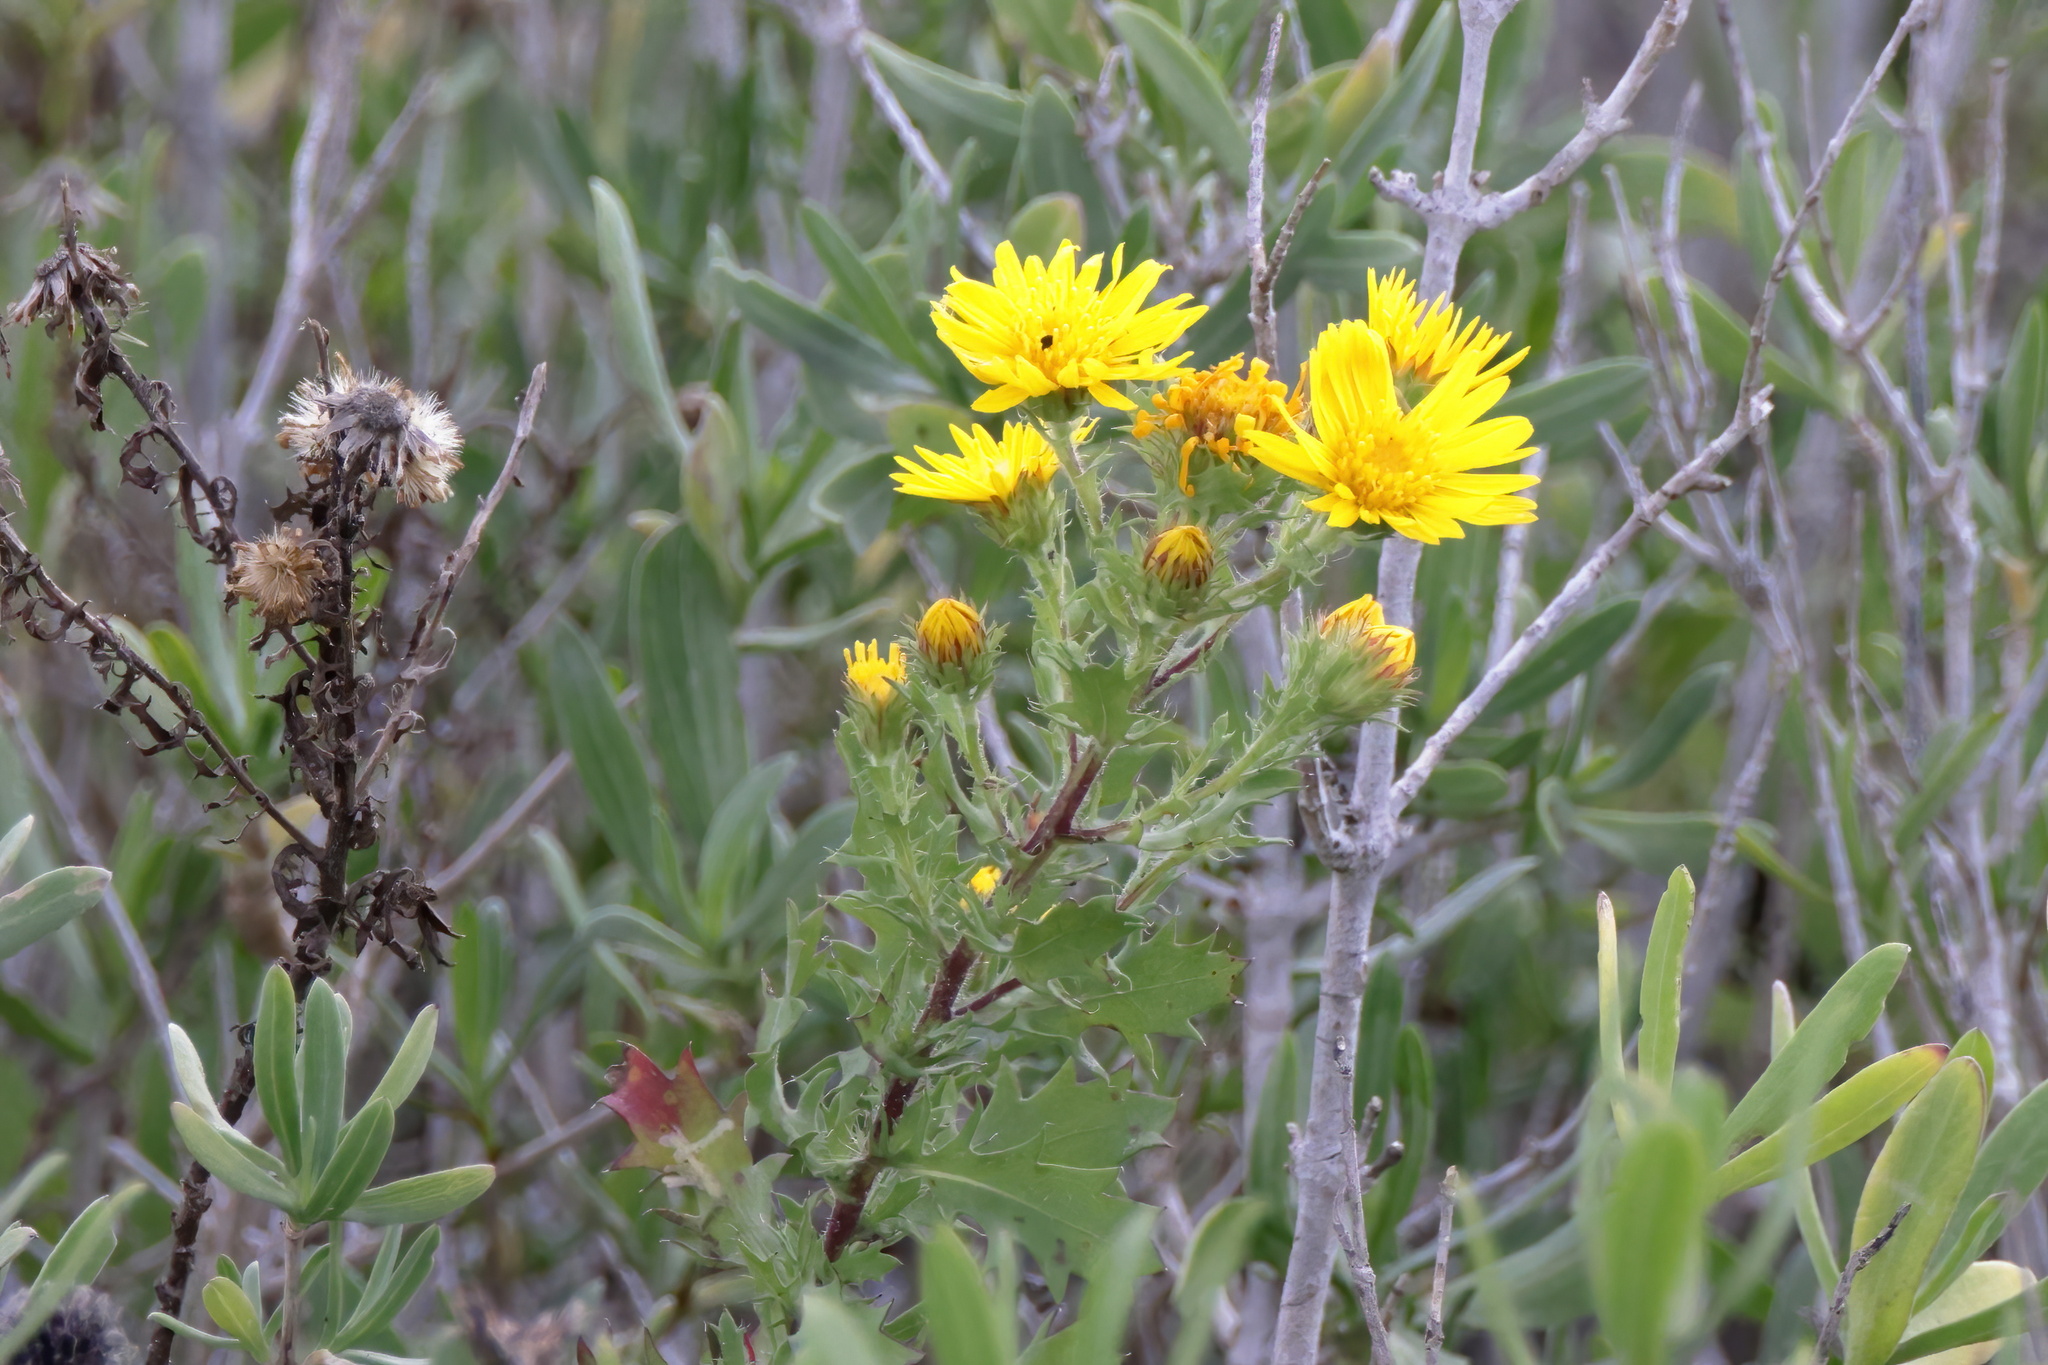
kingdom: Plantae
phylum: Tracheophyta
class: Magnoliopsida
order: Asterales
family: Asteraceae
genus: Rayjacksonia
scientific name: Rayjacksonia phyllocephala
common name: Gulf coast camphor daisy
